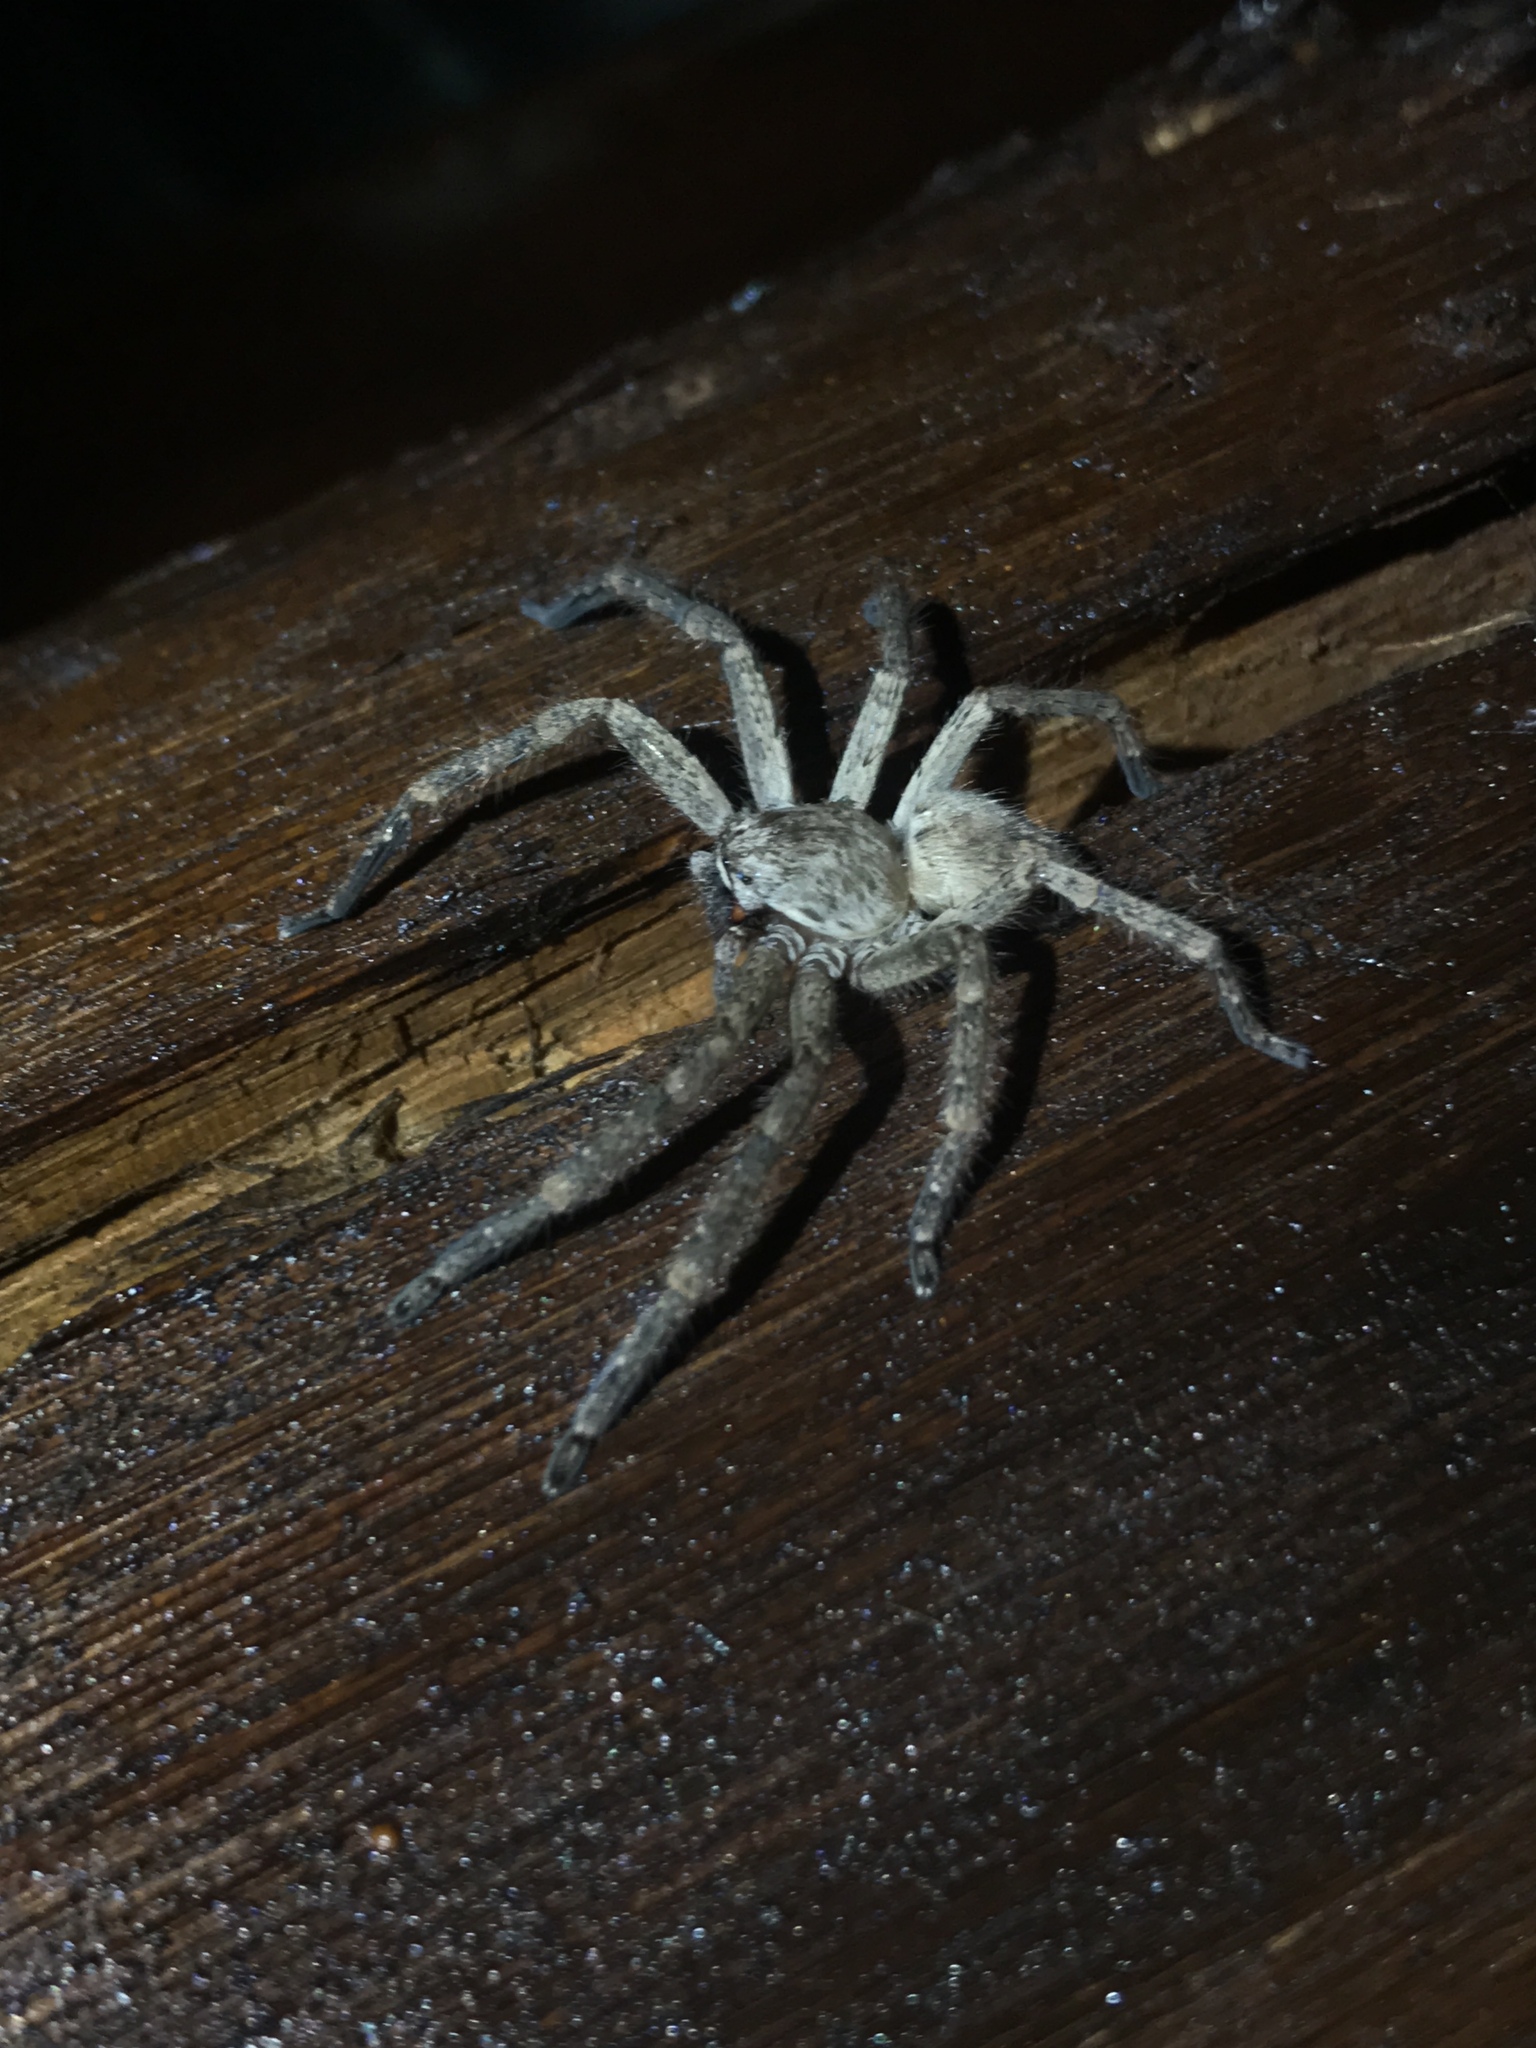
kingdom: Animalia
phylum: Arthropoda
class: Arachnida
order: Araneae
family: Sparassidae
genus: Polybetes
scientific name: Polybetes rapidus
